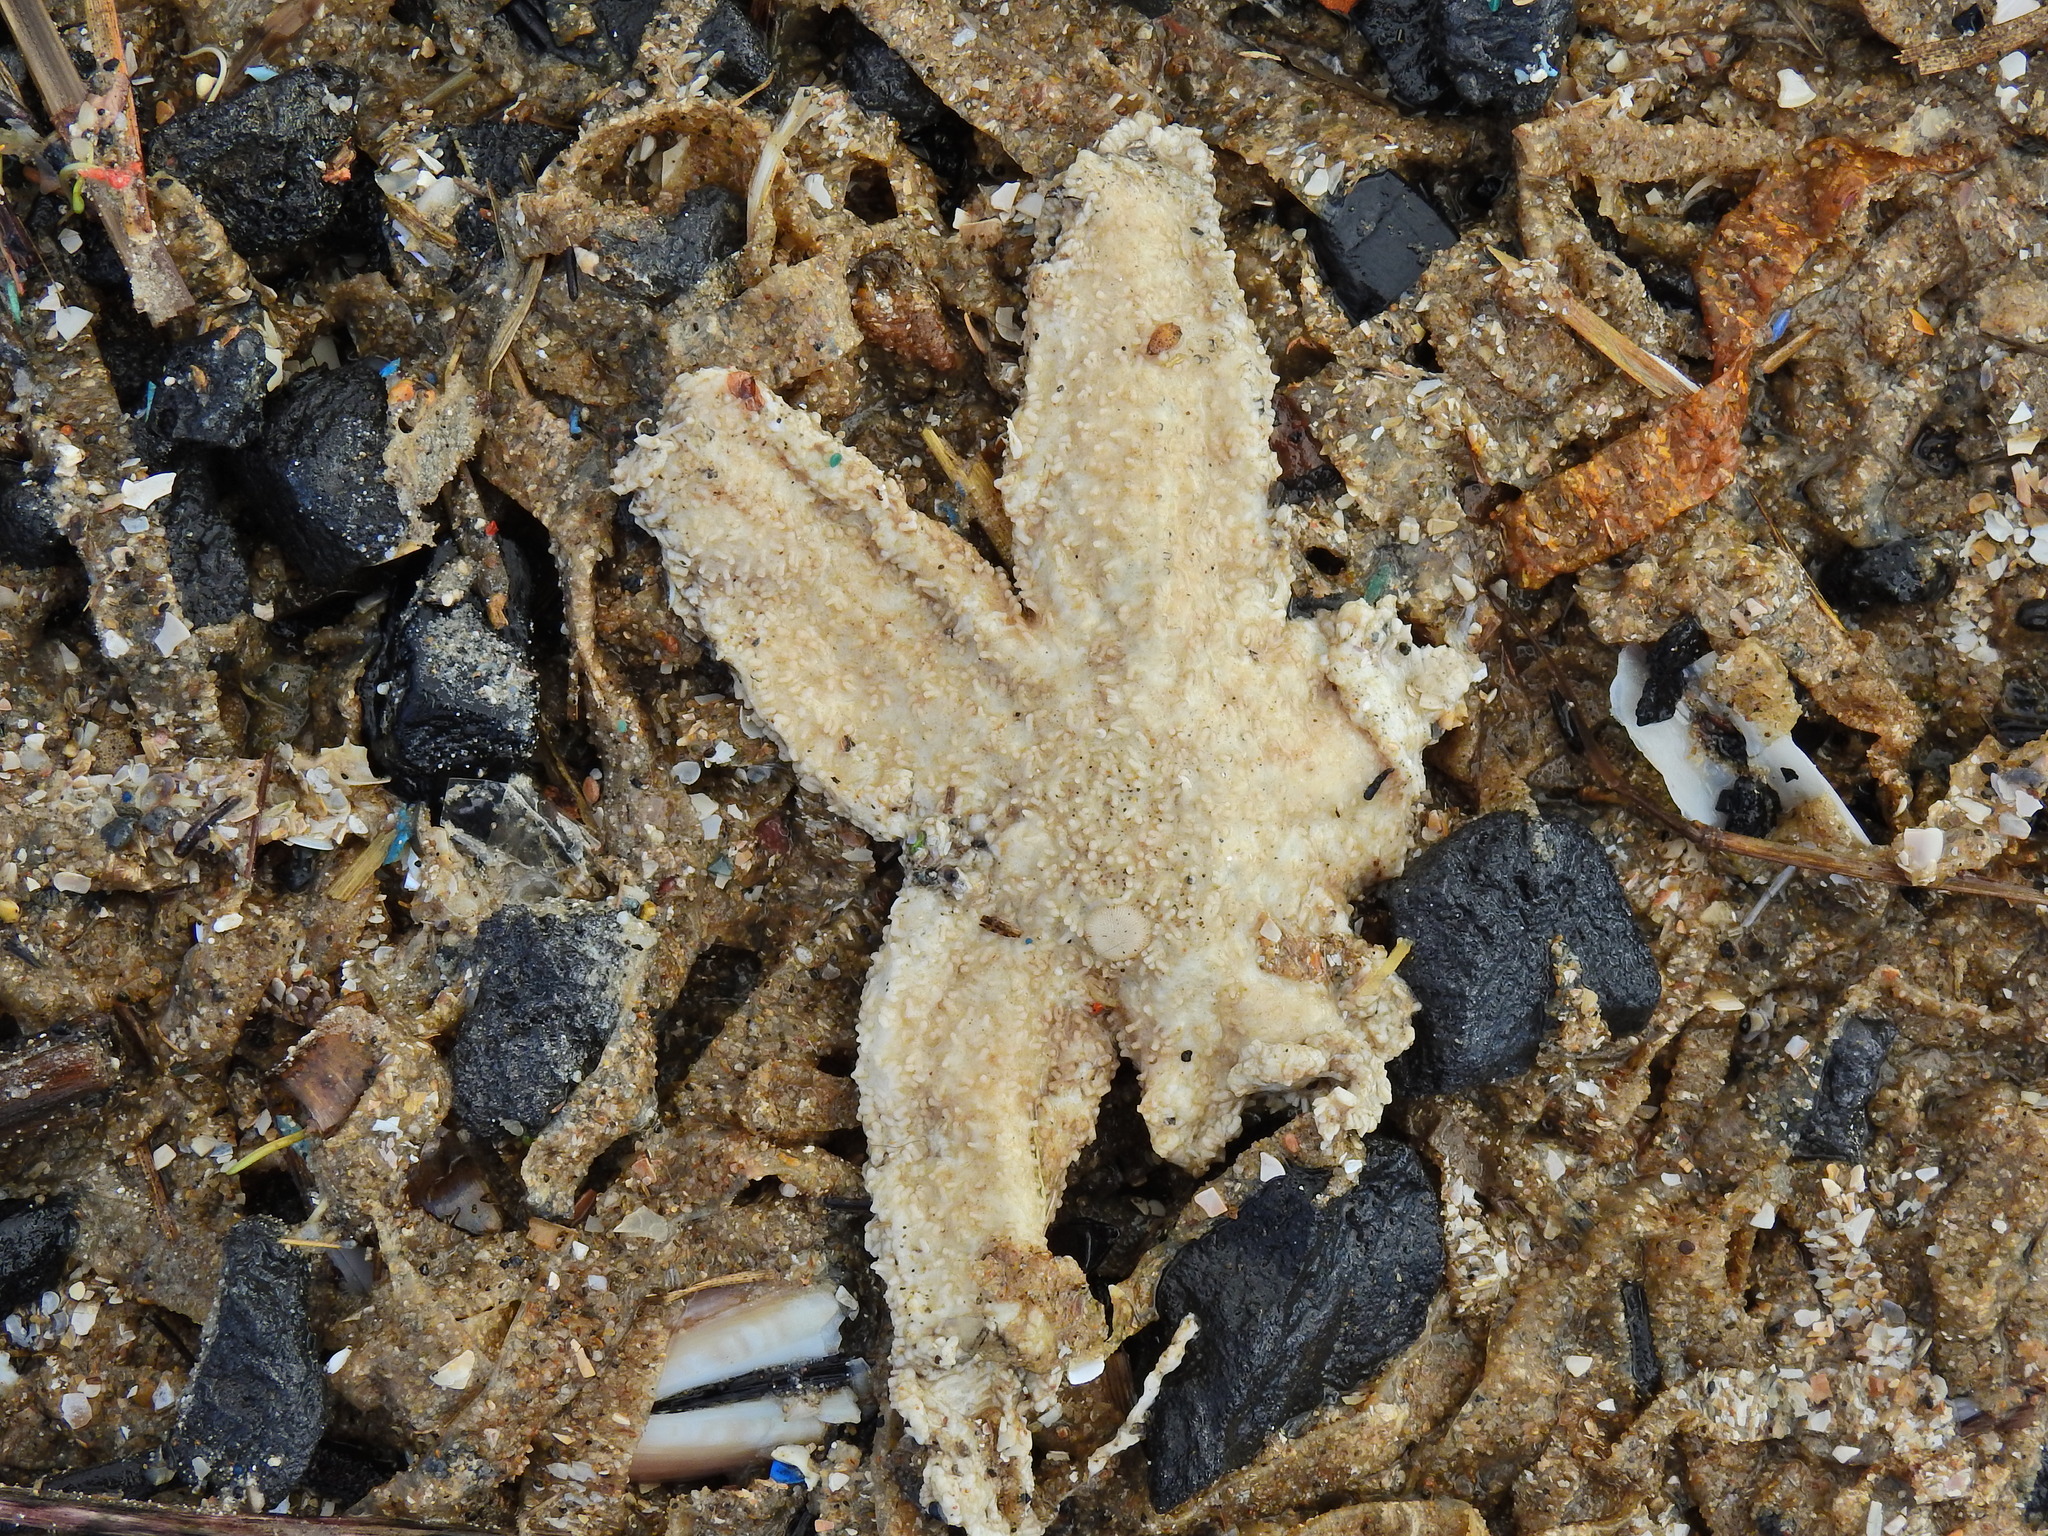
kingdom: Animalia
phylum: Echinodermata
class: Asteroidea
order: Forcipulatida
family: Asteriidae
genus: Asterias
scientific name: Asterias rubens
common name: Common starfish
